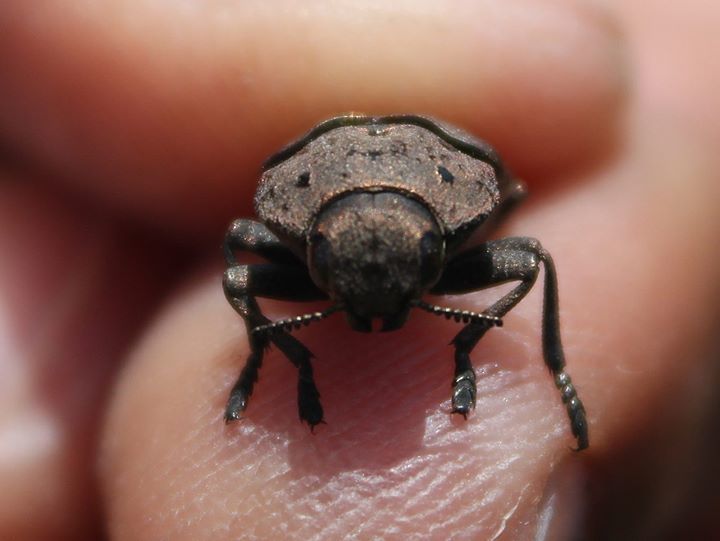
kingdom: Animalia
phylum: Arthropoda
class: Insecta
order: Coleoptera
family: Buprestidae
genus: Capnodis
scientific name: Capnodis tenebricosa
